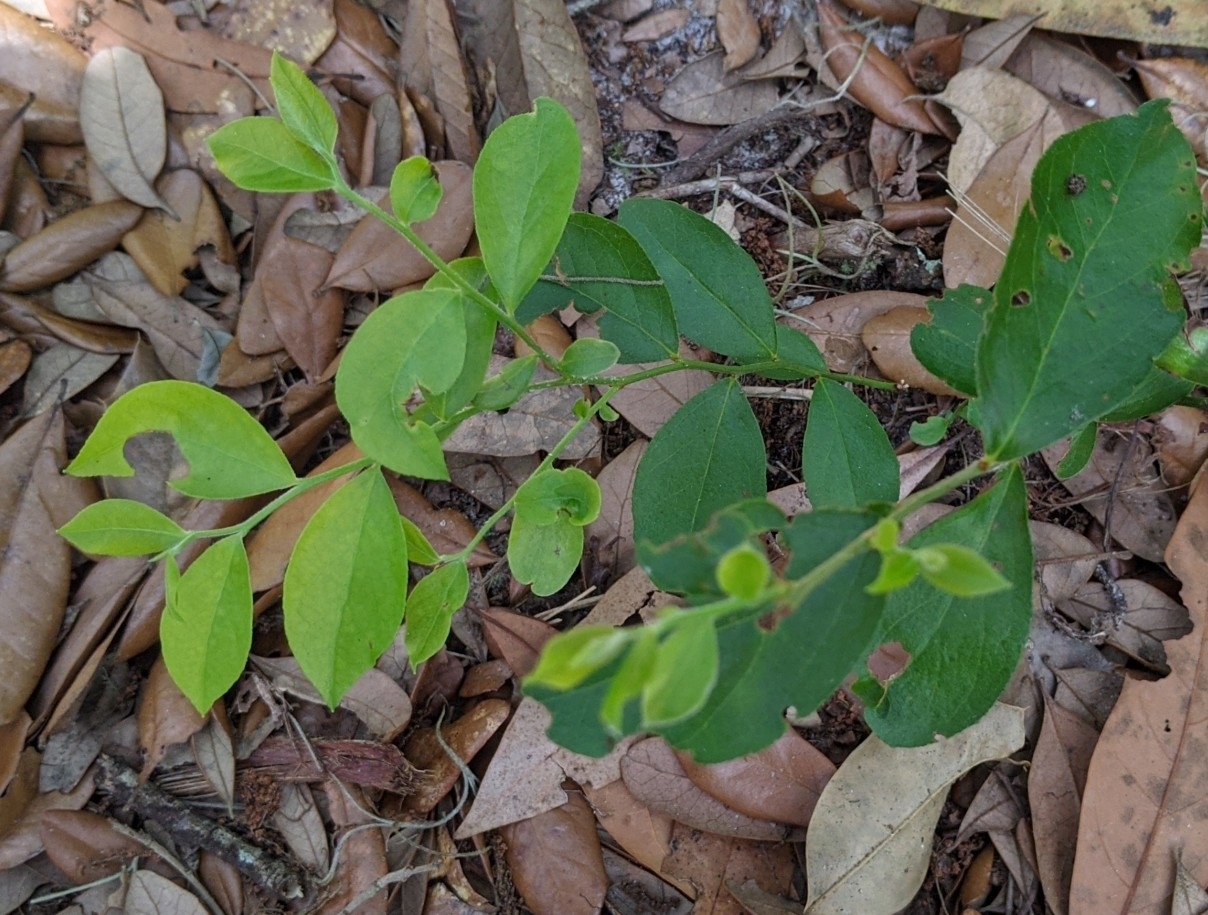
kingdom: Plantae
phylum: Tracheophyta
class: Magnoliopsida
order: Ericales
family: Ericaceae
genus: Vaccinium
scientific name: Vaccinium corymbosum
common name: Blueberry
